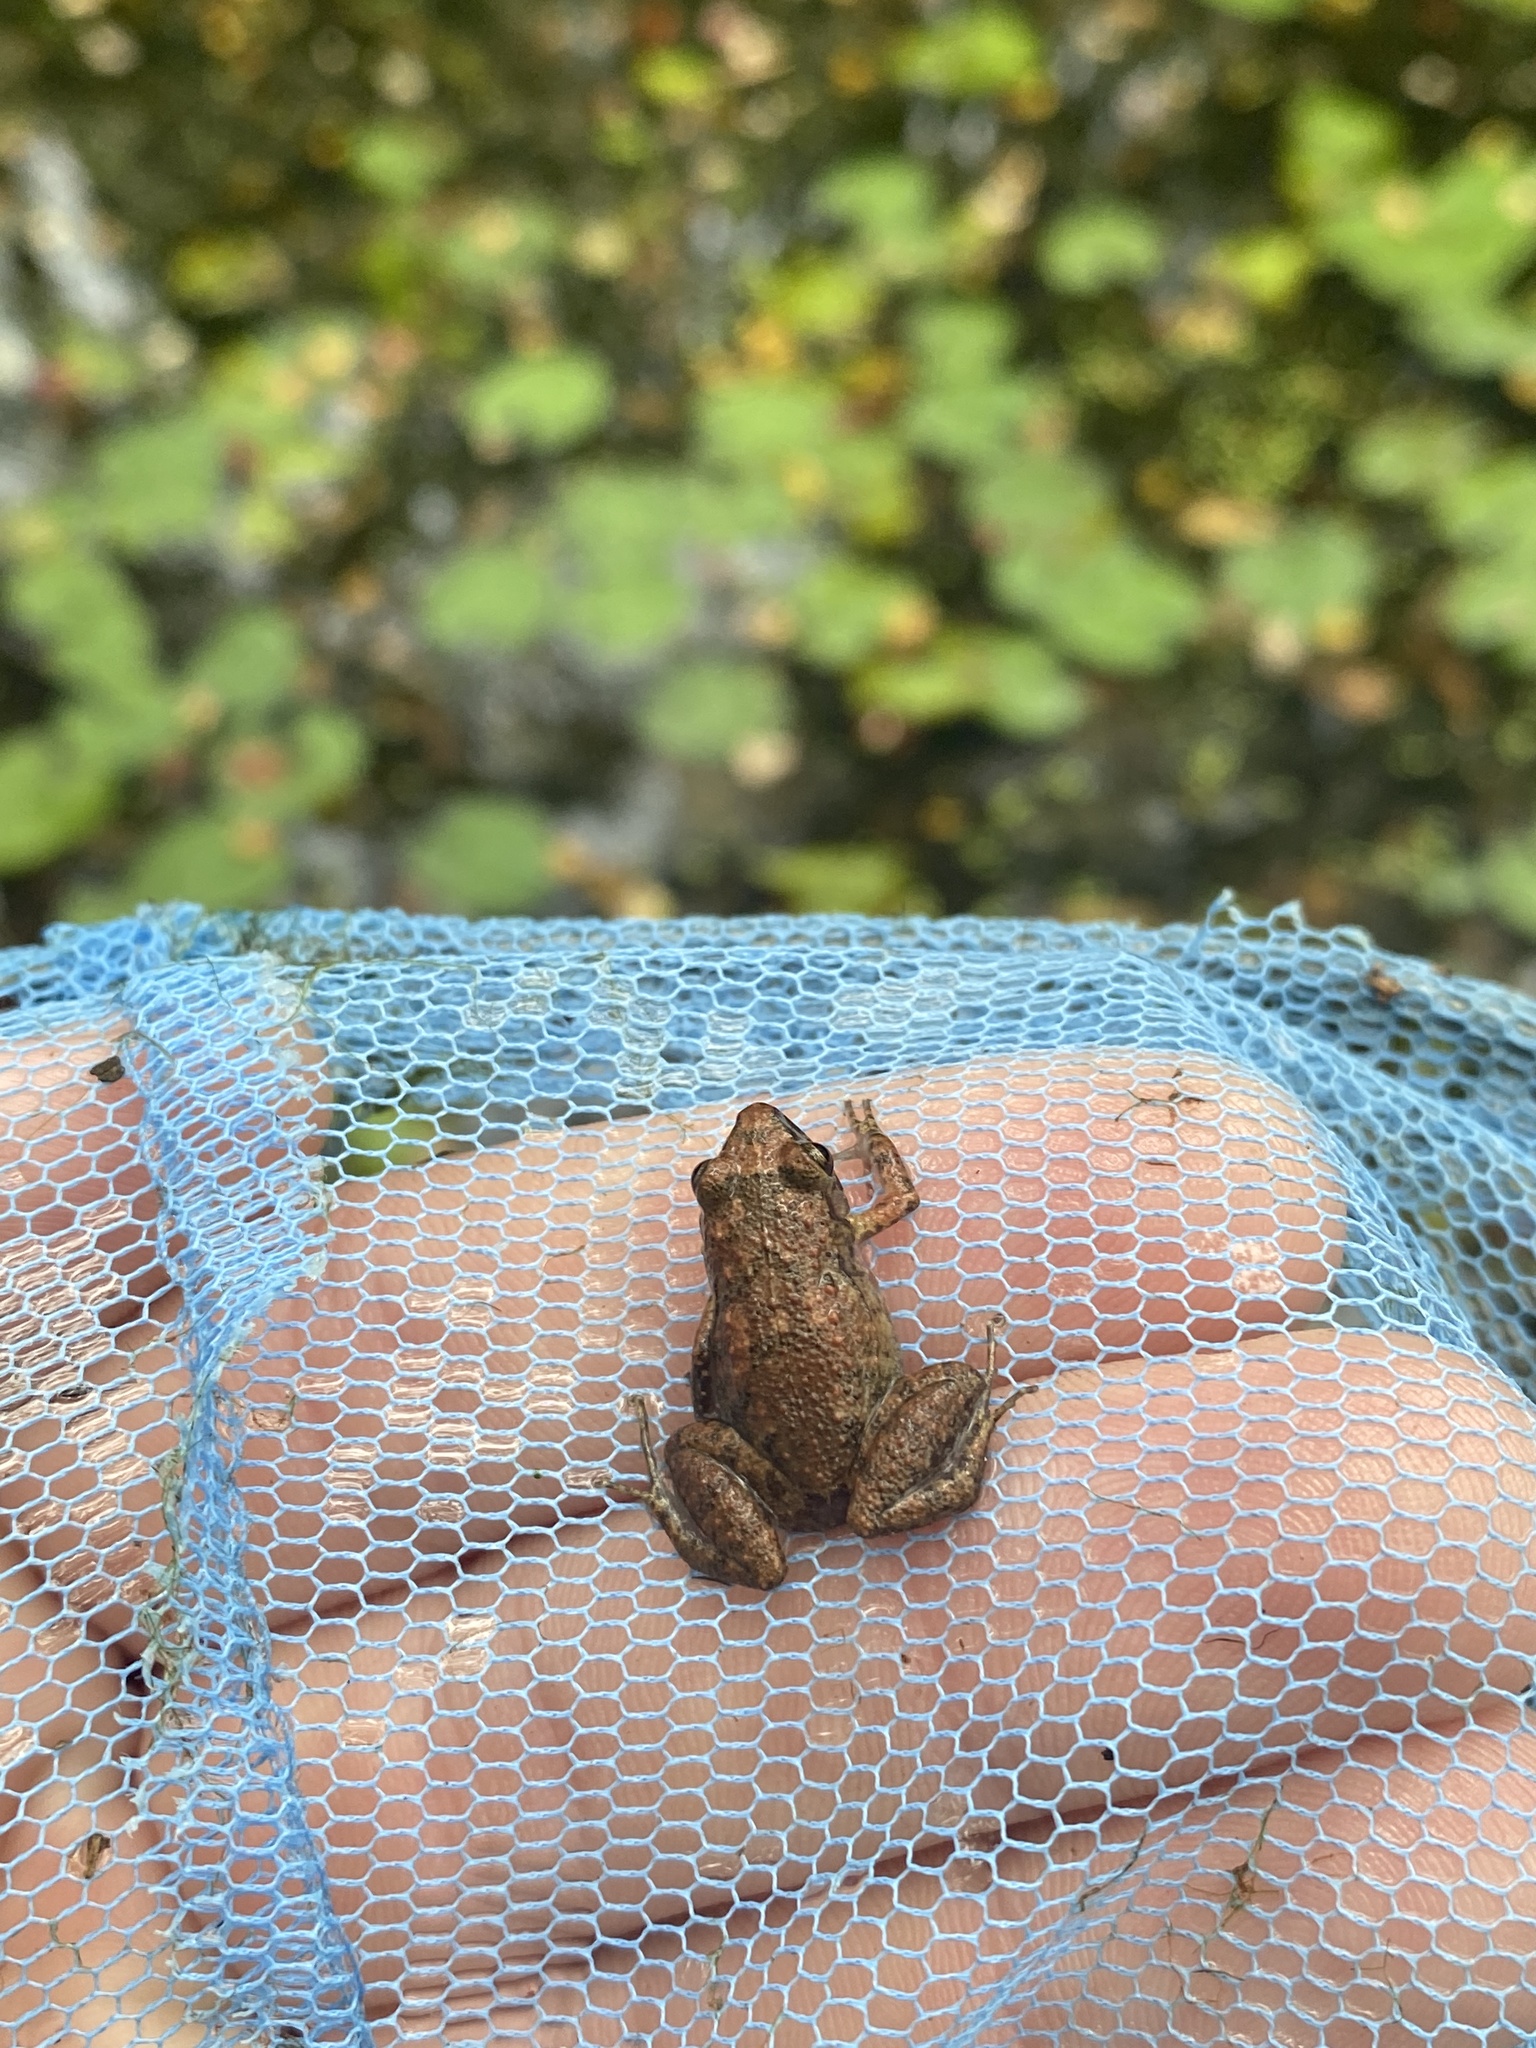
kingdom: Animalia
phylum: Chordata
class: Amphibia
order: Anura
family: Eleutherodactylidae
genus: Eleutherodactylus
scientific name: Eleutherodactylus planirostris
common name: Greenhouse frog
